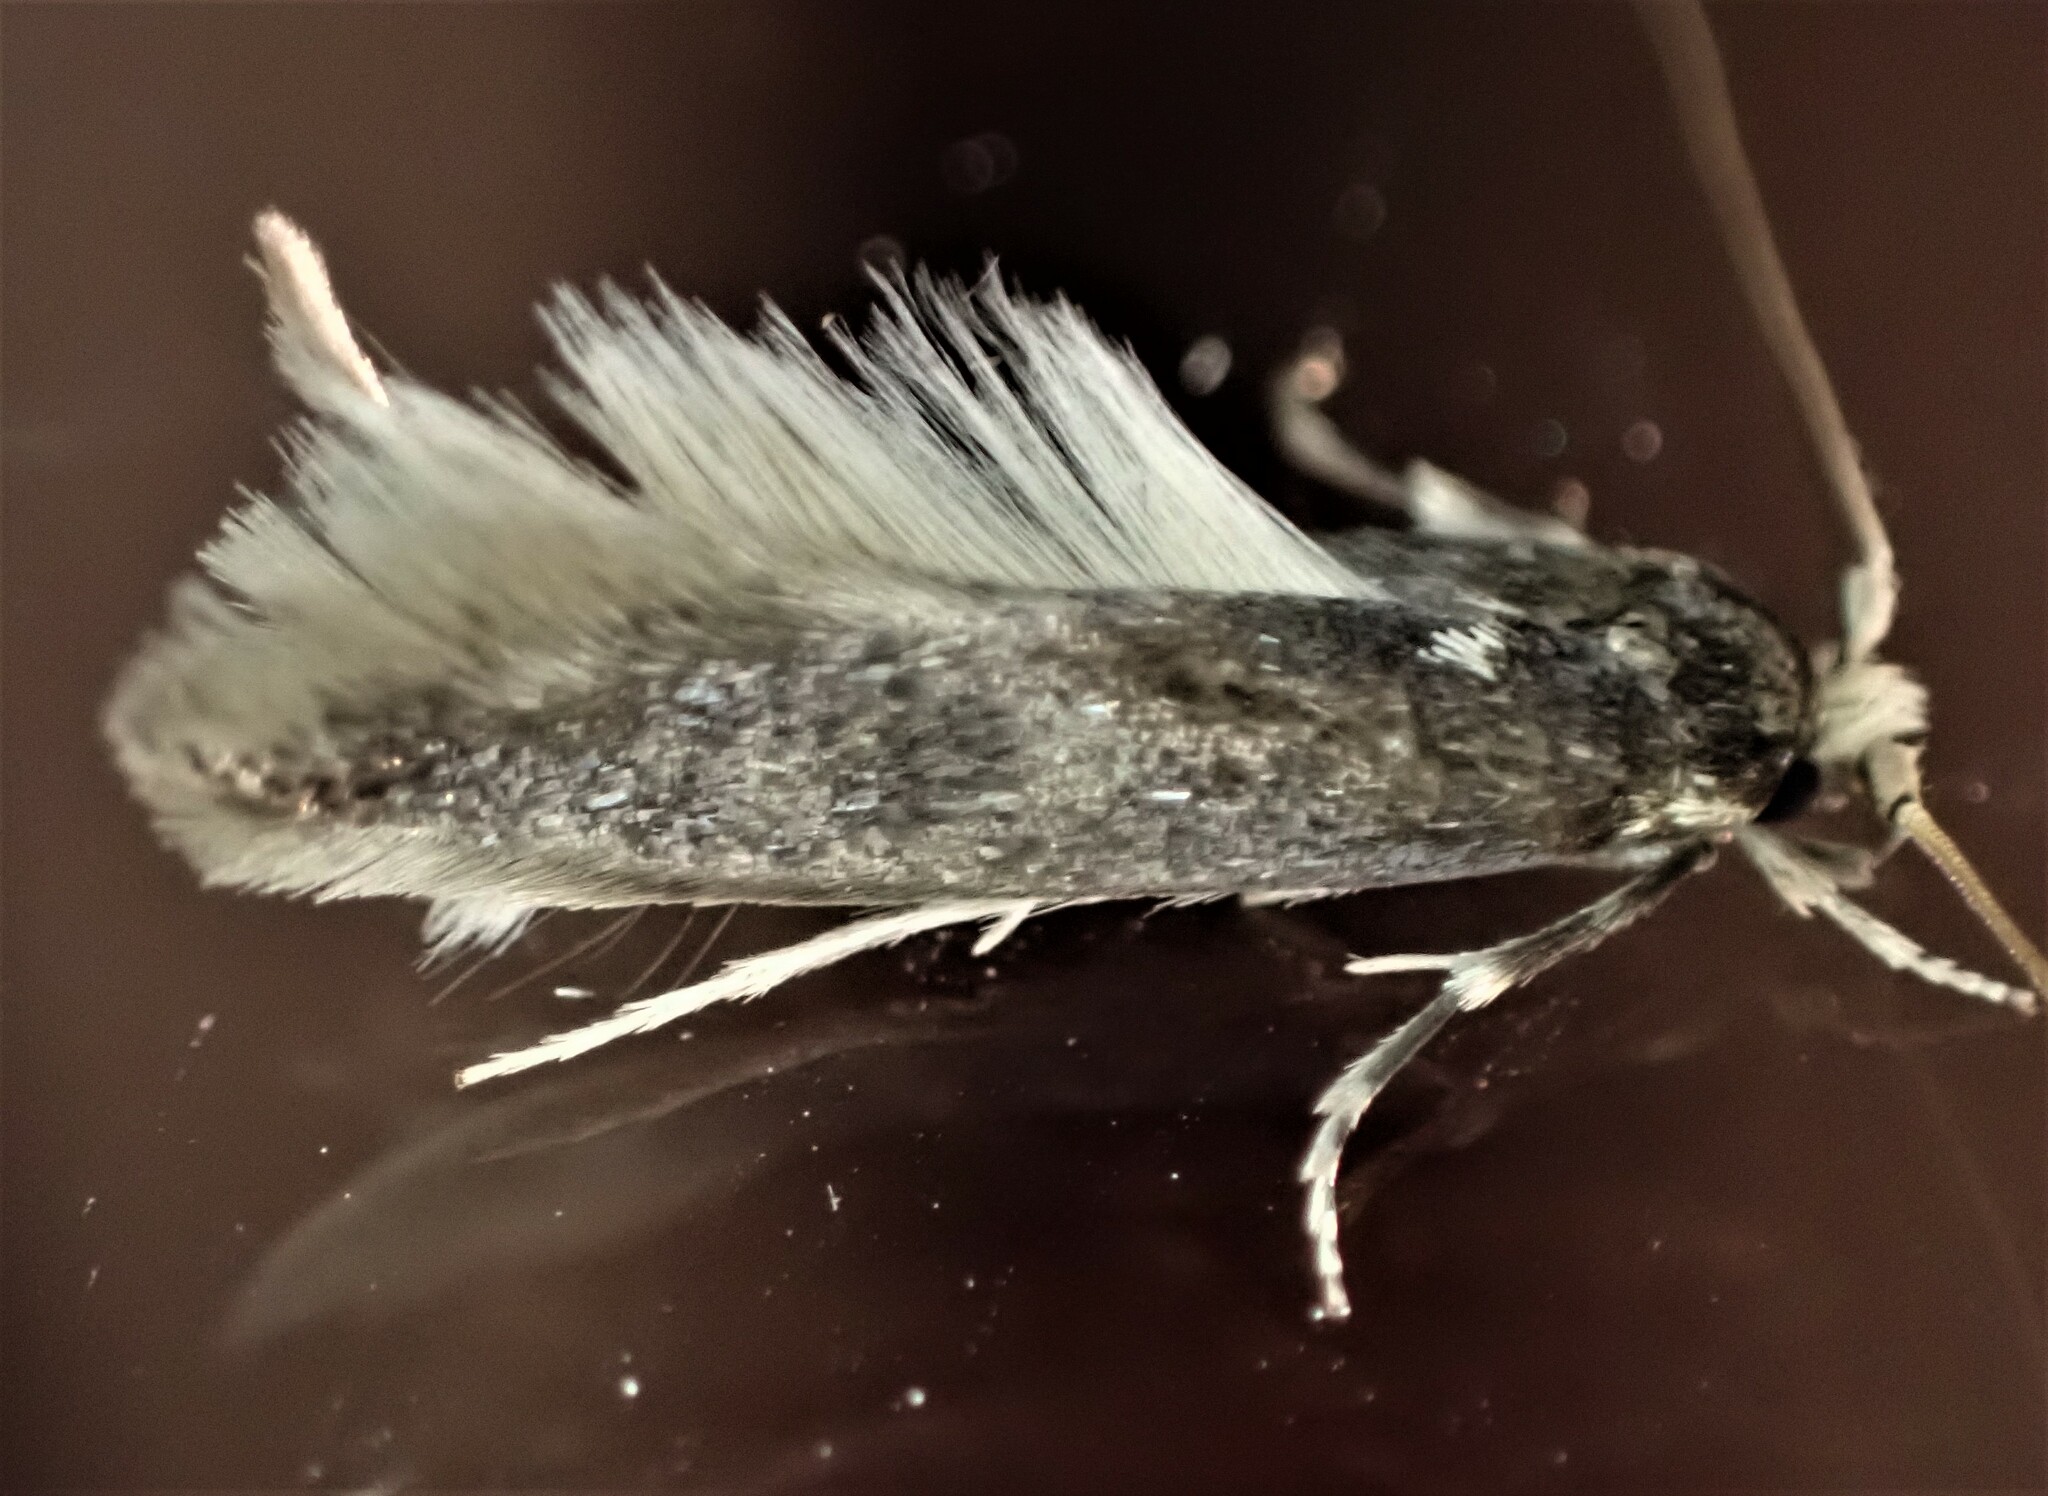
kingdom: Animalia
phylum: Arthropoda
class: Insecta
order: Lepidoptera
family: Tineidae
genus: Opogona
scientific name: Opogona omoscopa
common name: Moth
